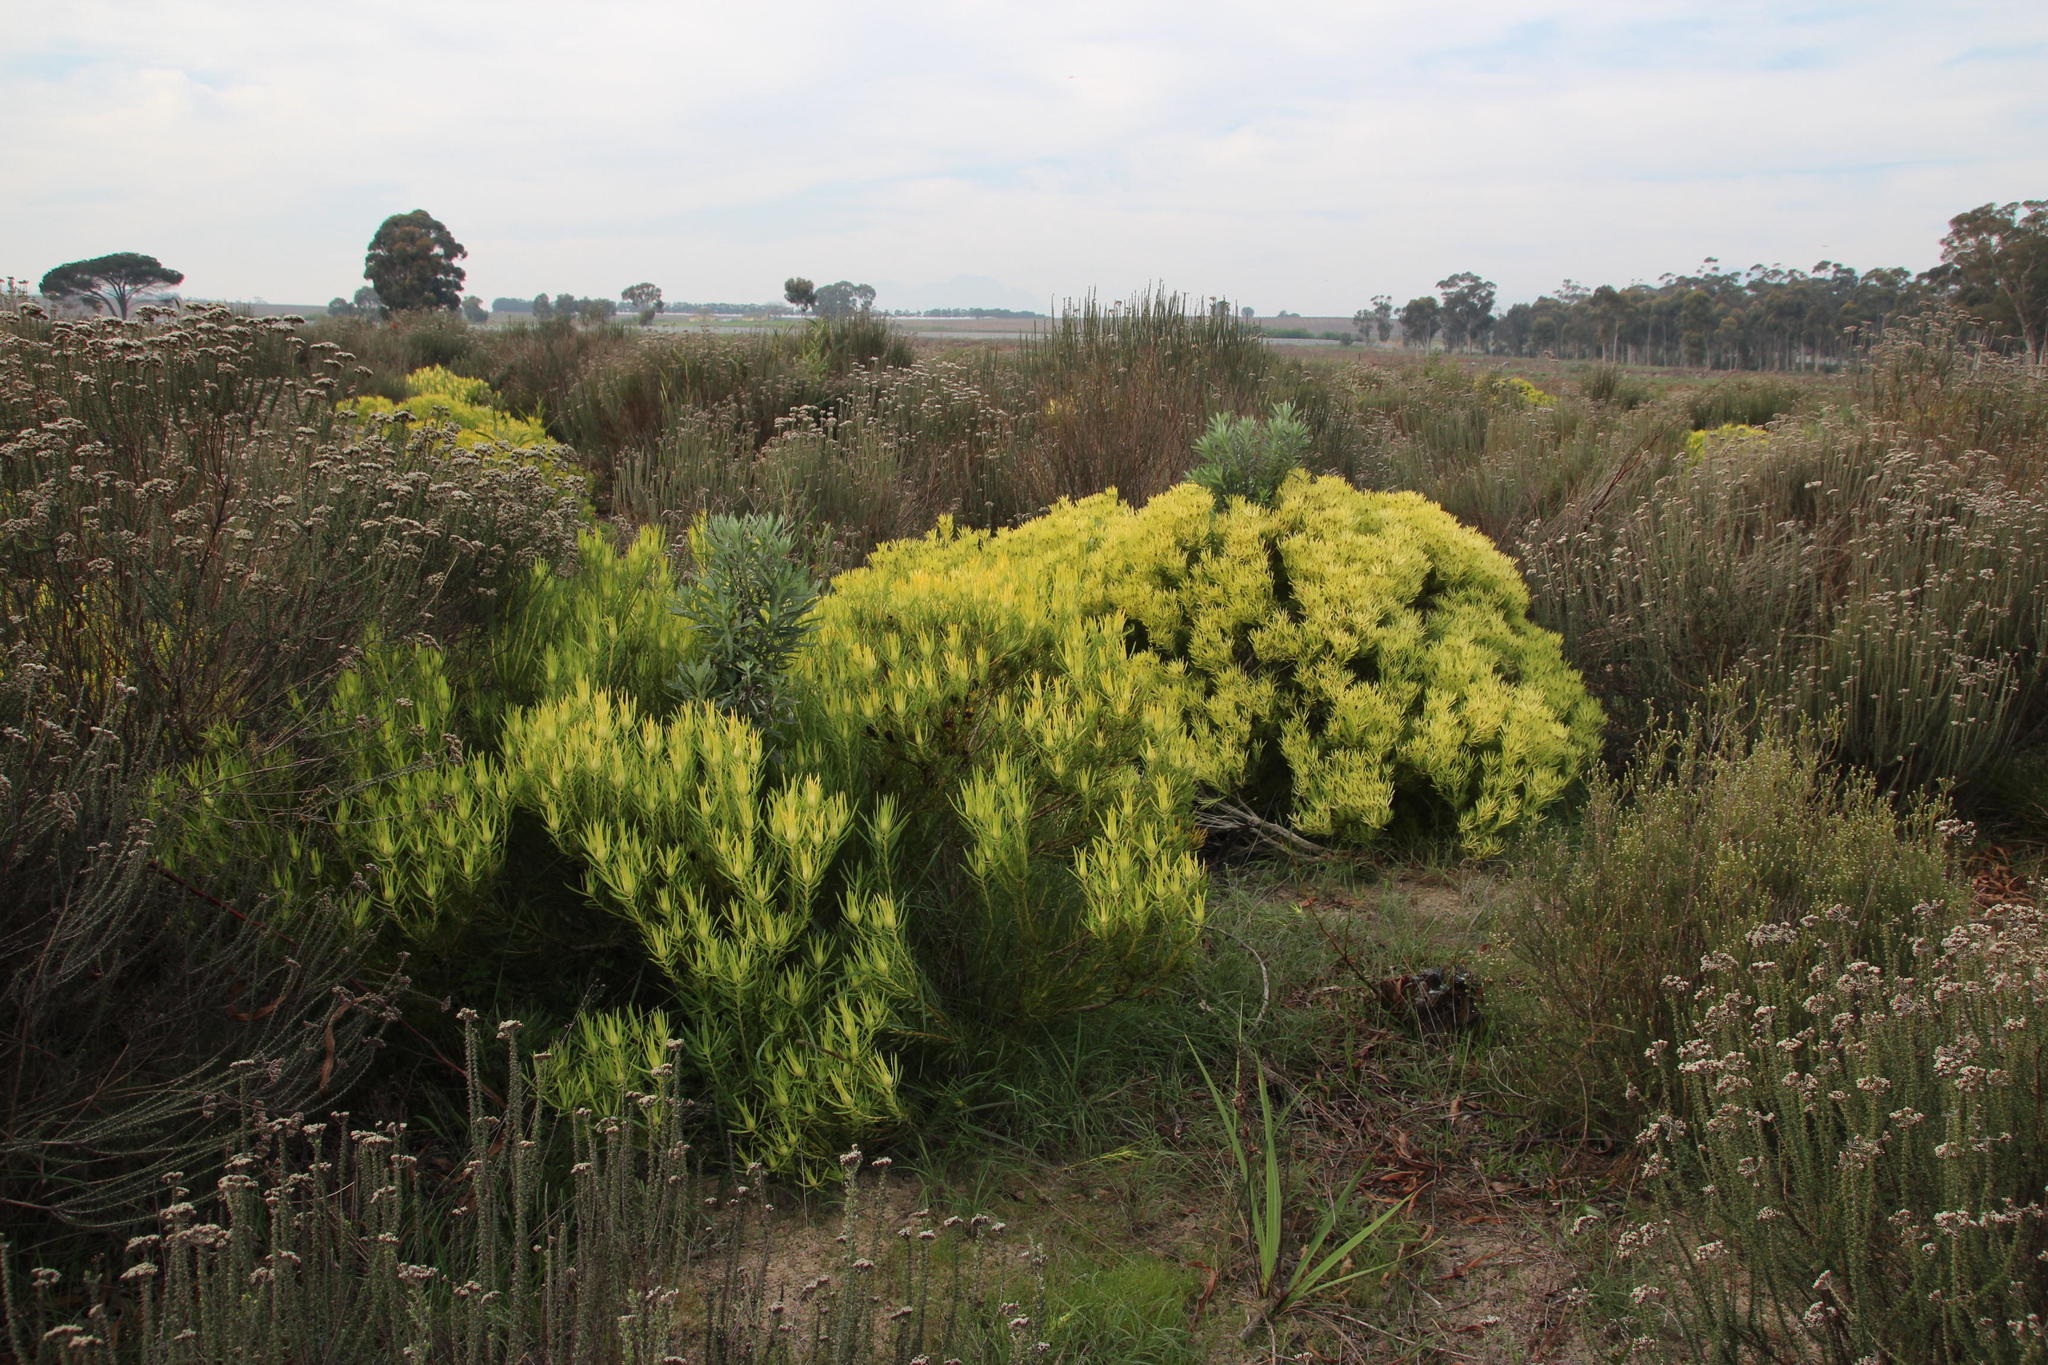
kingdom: Plantae
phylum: Tracheophyta
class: Magnoliopsida
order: Proteales
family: Proteaceae
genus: Leucadendron
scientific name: Leucadendron salignum
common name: Common sunshine conebush
